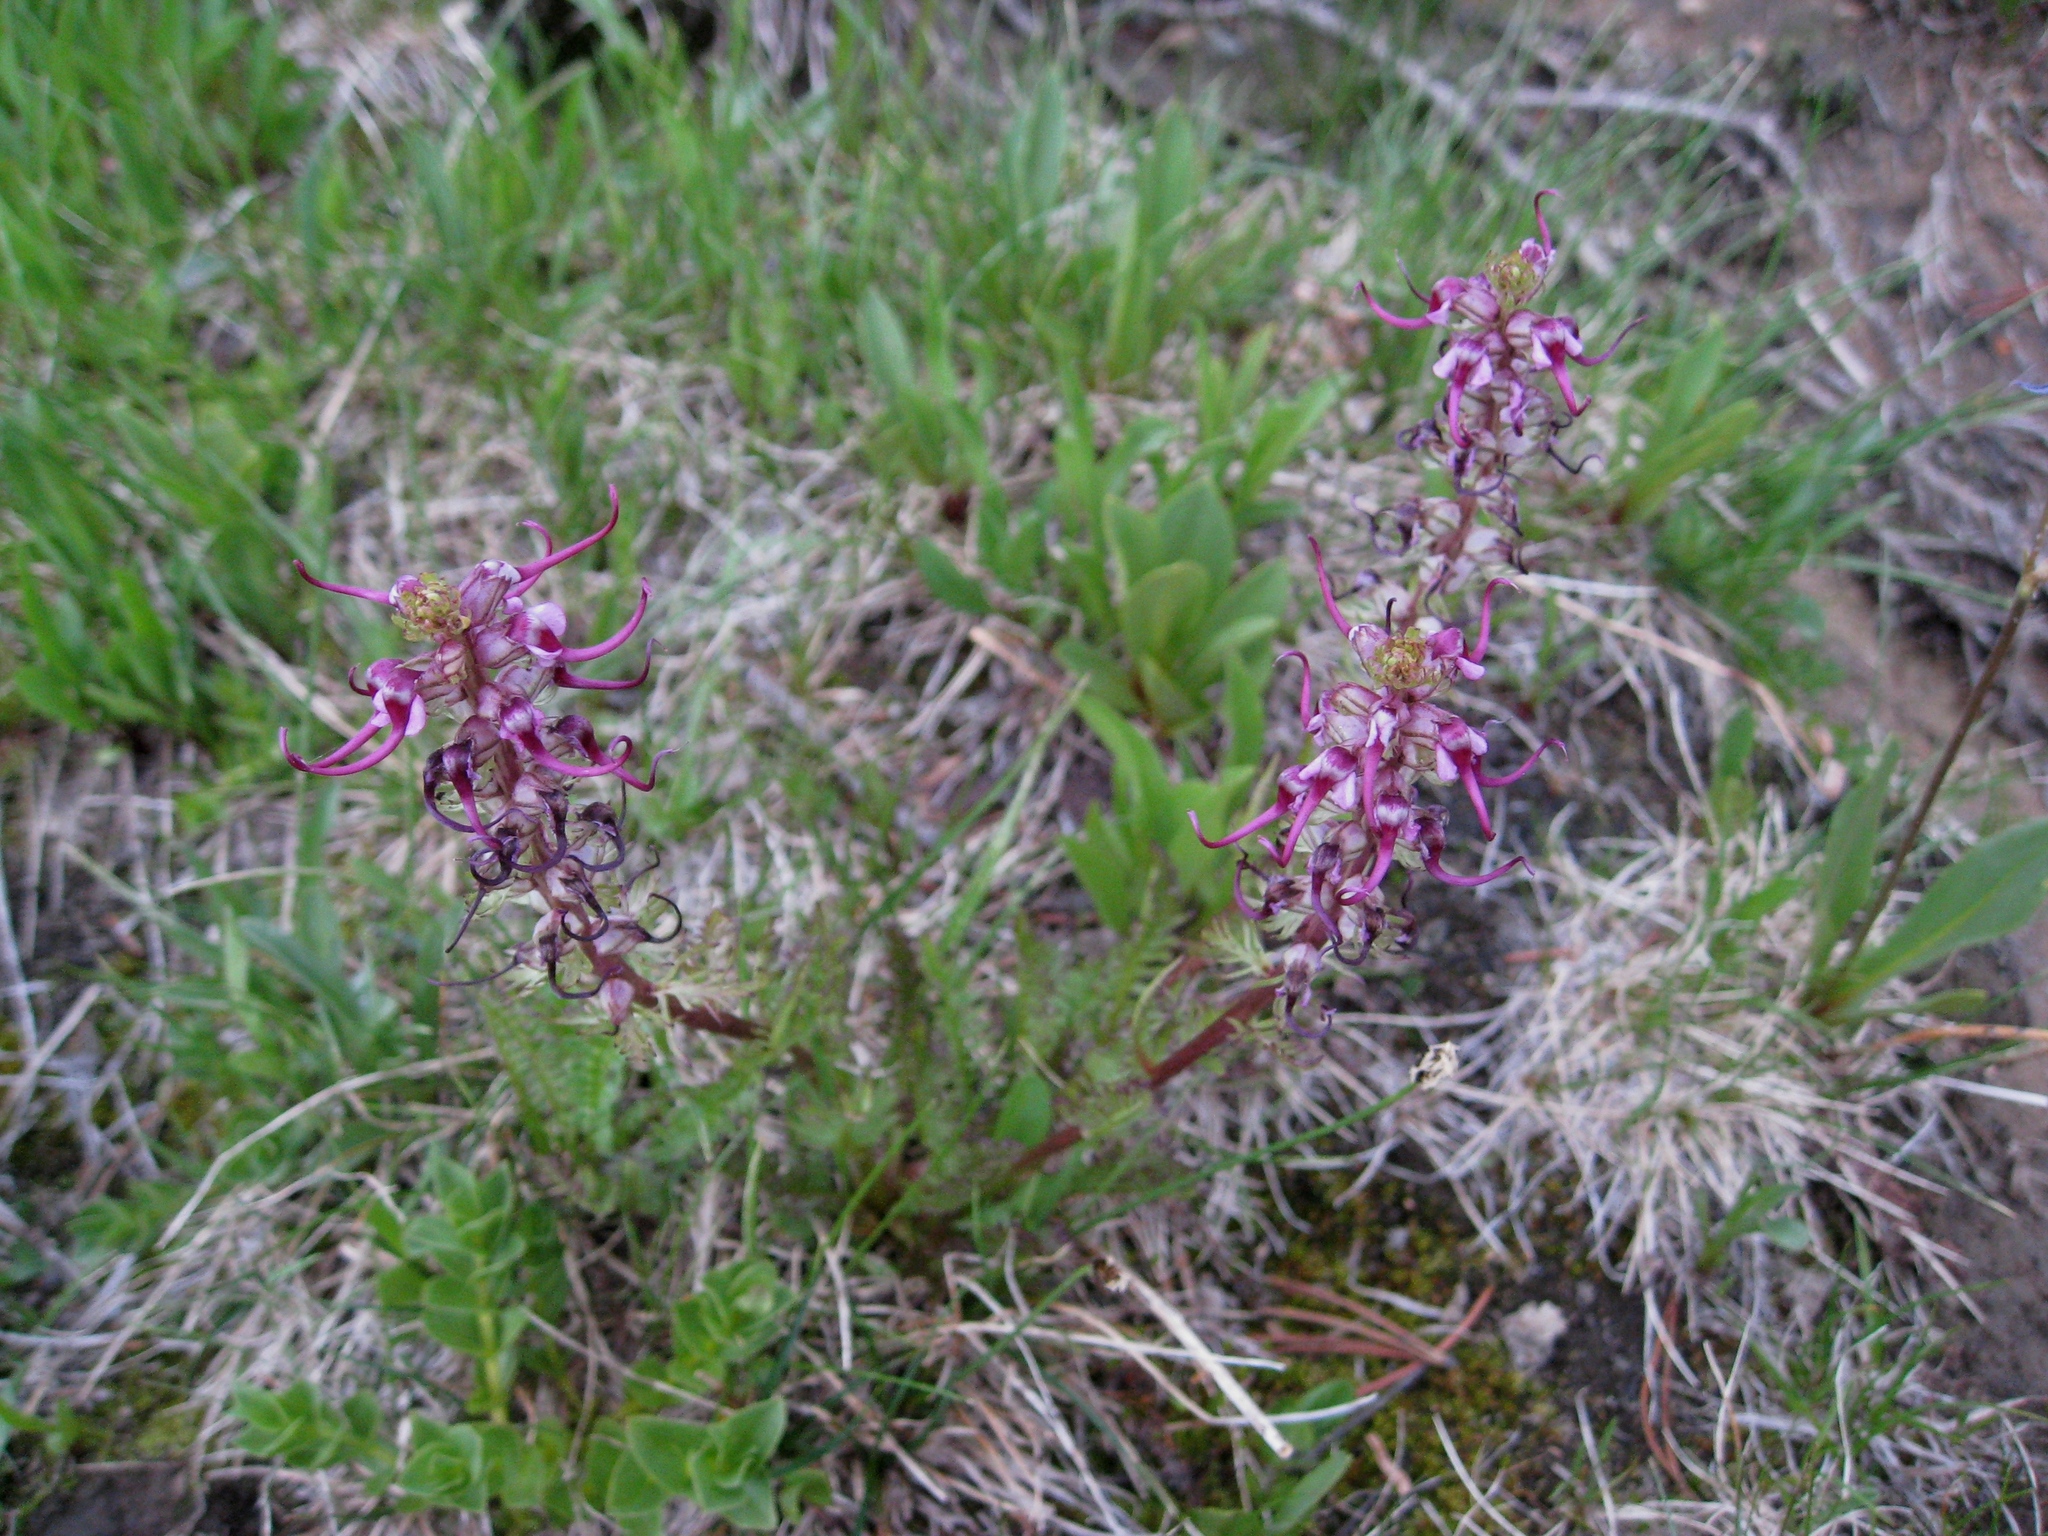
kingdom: Plantae
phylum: Tracheophyta
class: Magnoliopsida
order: Lamiales
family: Orobanchaceae
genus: Pedicularis
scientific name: Pedicularis groenlandica
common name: Elephant's-head
